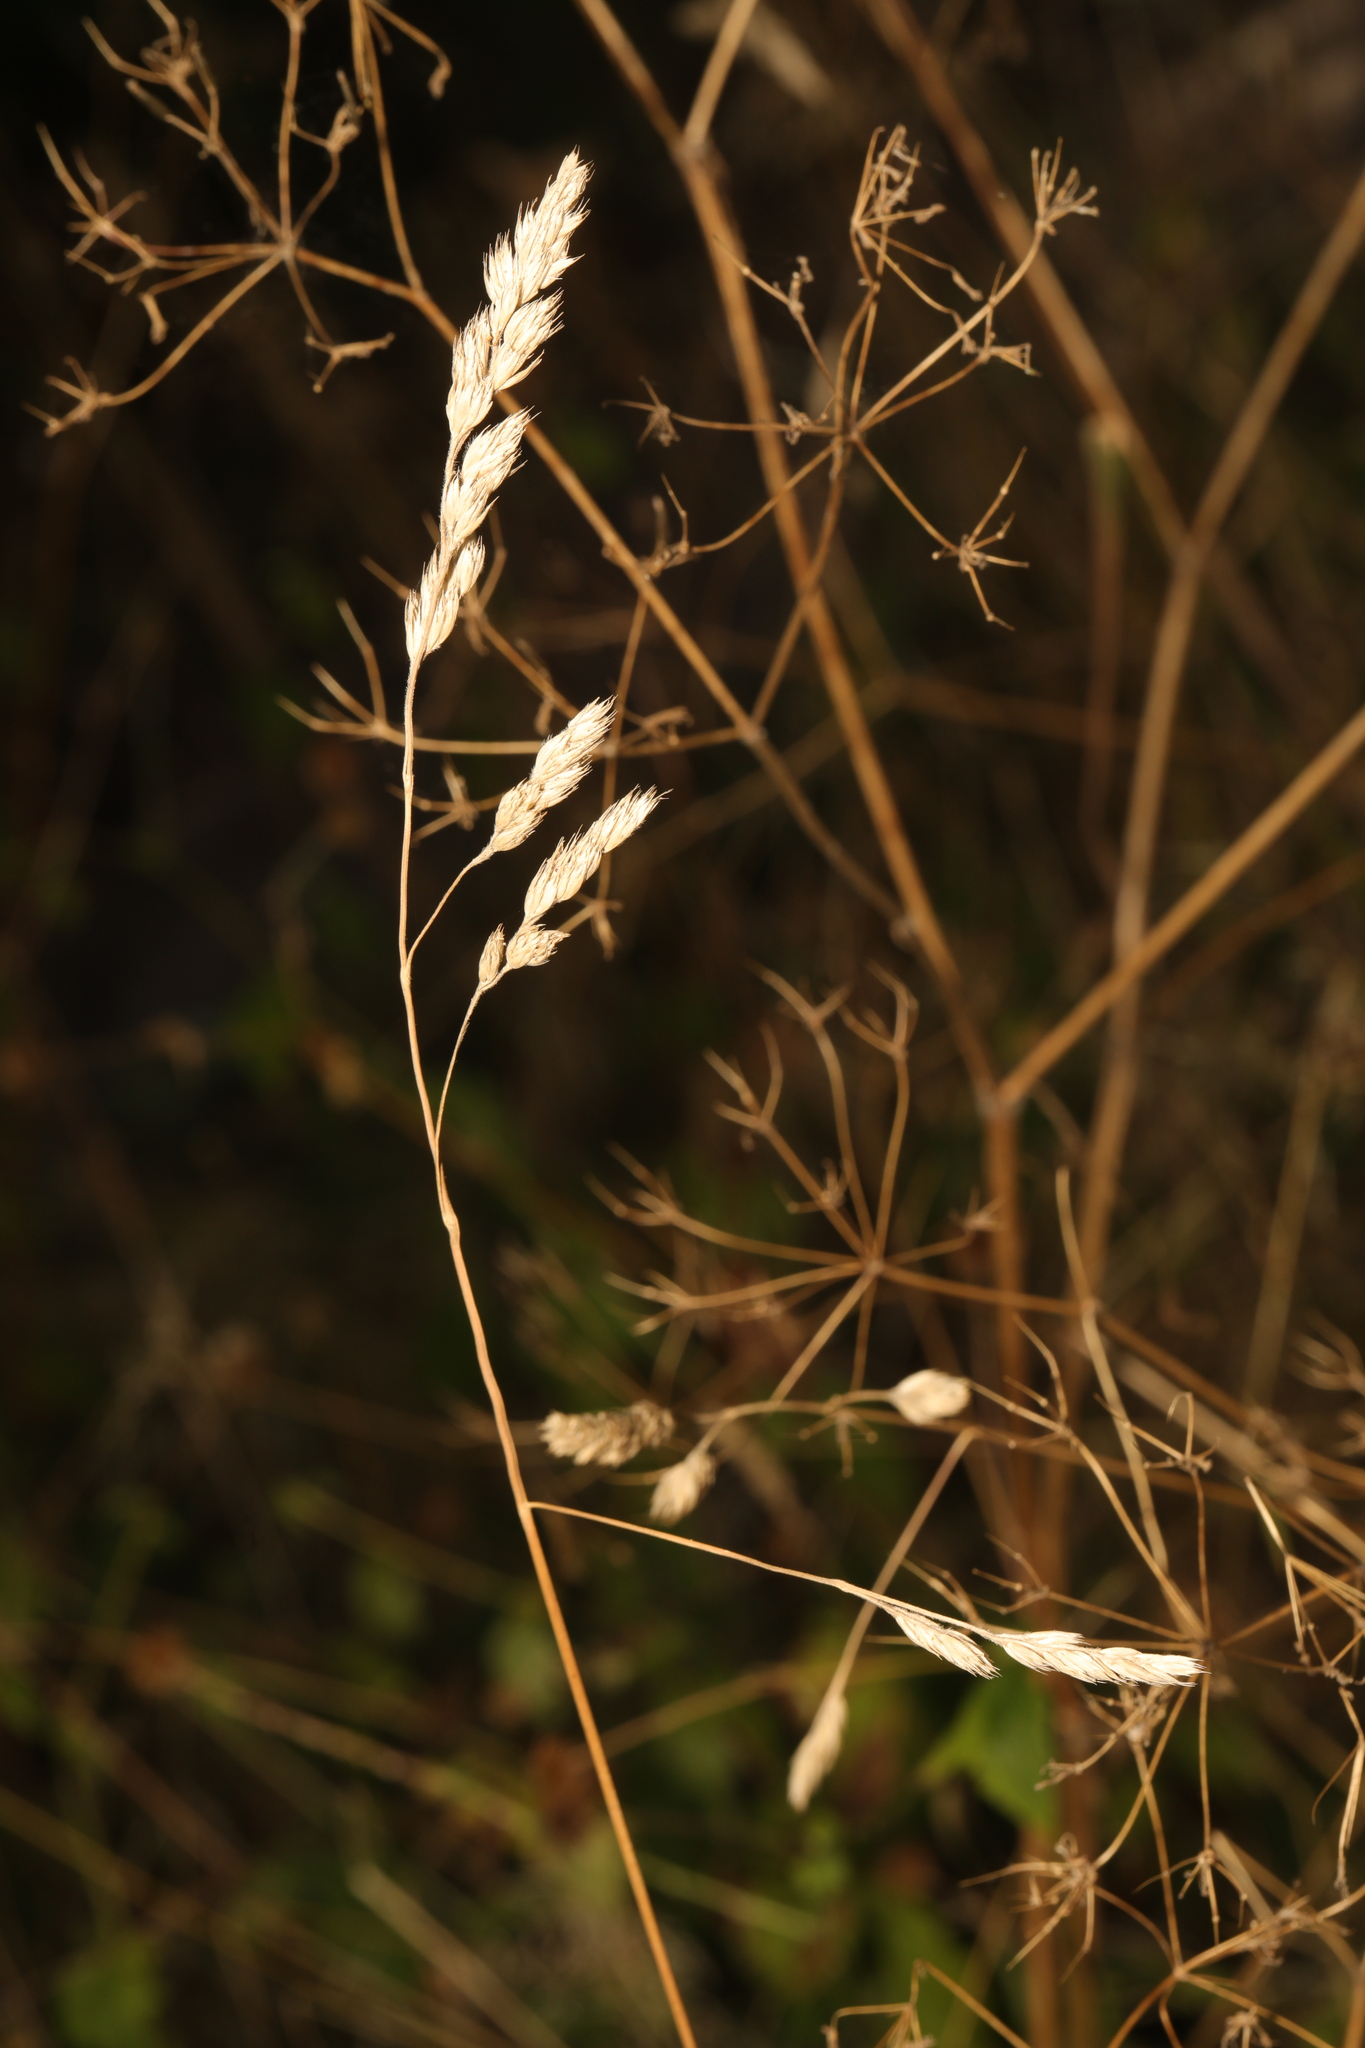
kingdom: Plantae
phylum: Tracheophyta
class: Liliopsida
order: Poales
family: Poaceae
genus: Dactylis
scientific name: Dactylis glomerata
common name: Orchardgrass
